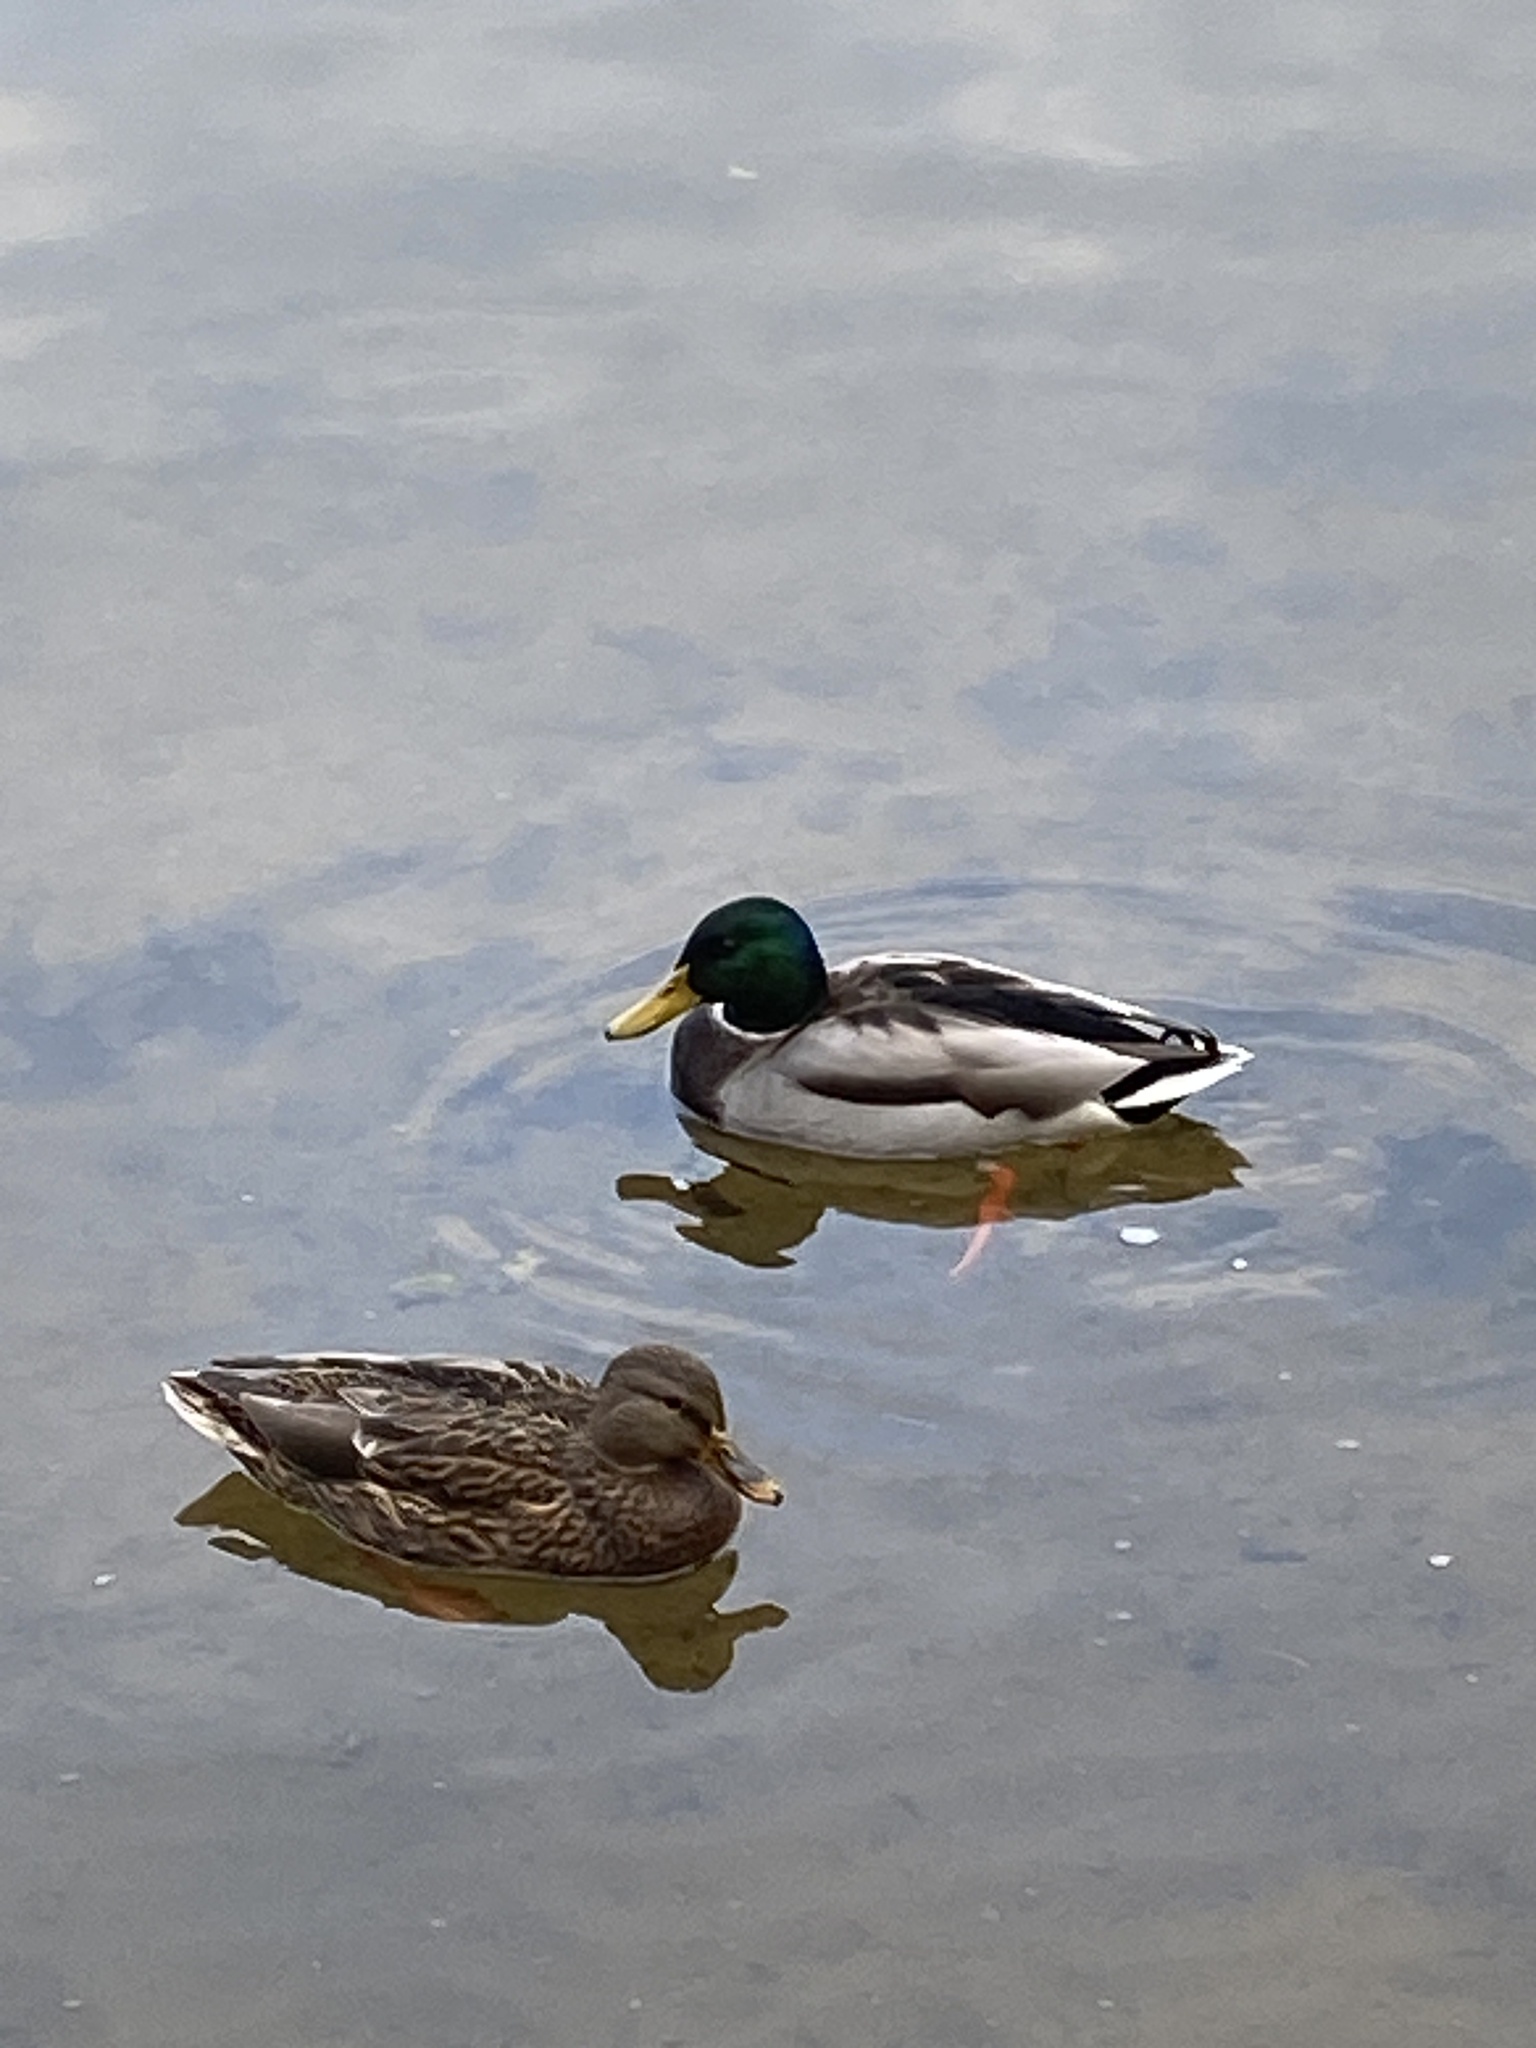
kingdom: Animalia
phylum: Chordata
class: Aves
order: Anseriformes
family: Anatidae
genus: Anas
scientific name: Anas platyrhynchos
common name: Mallard
